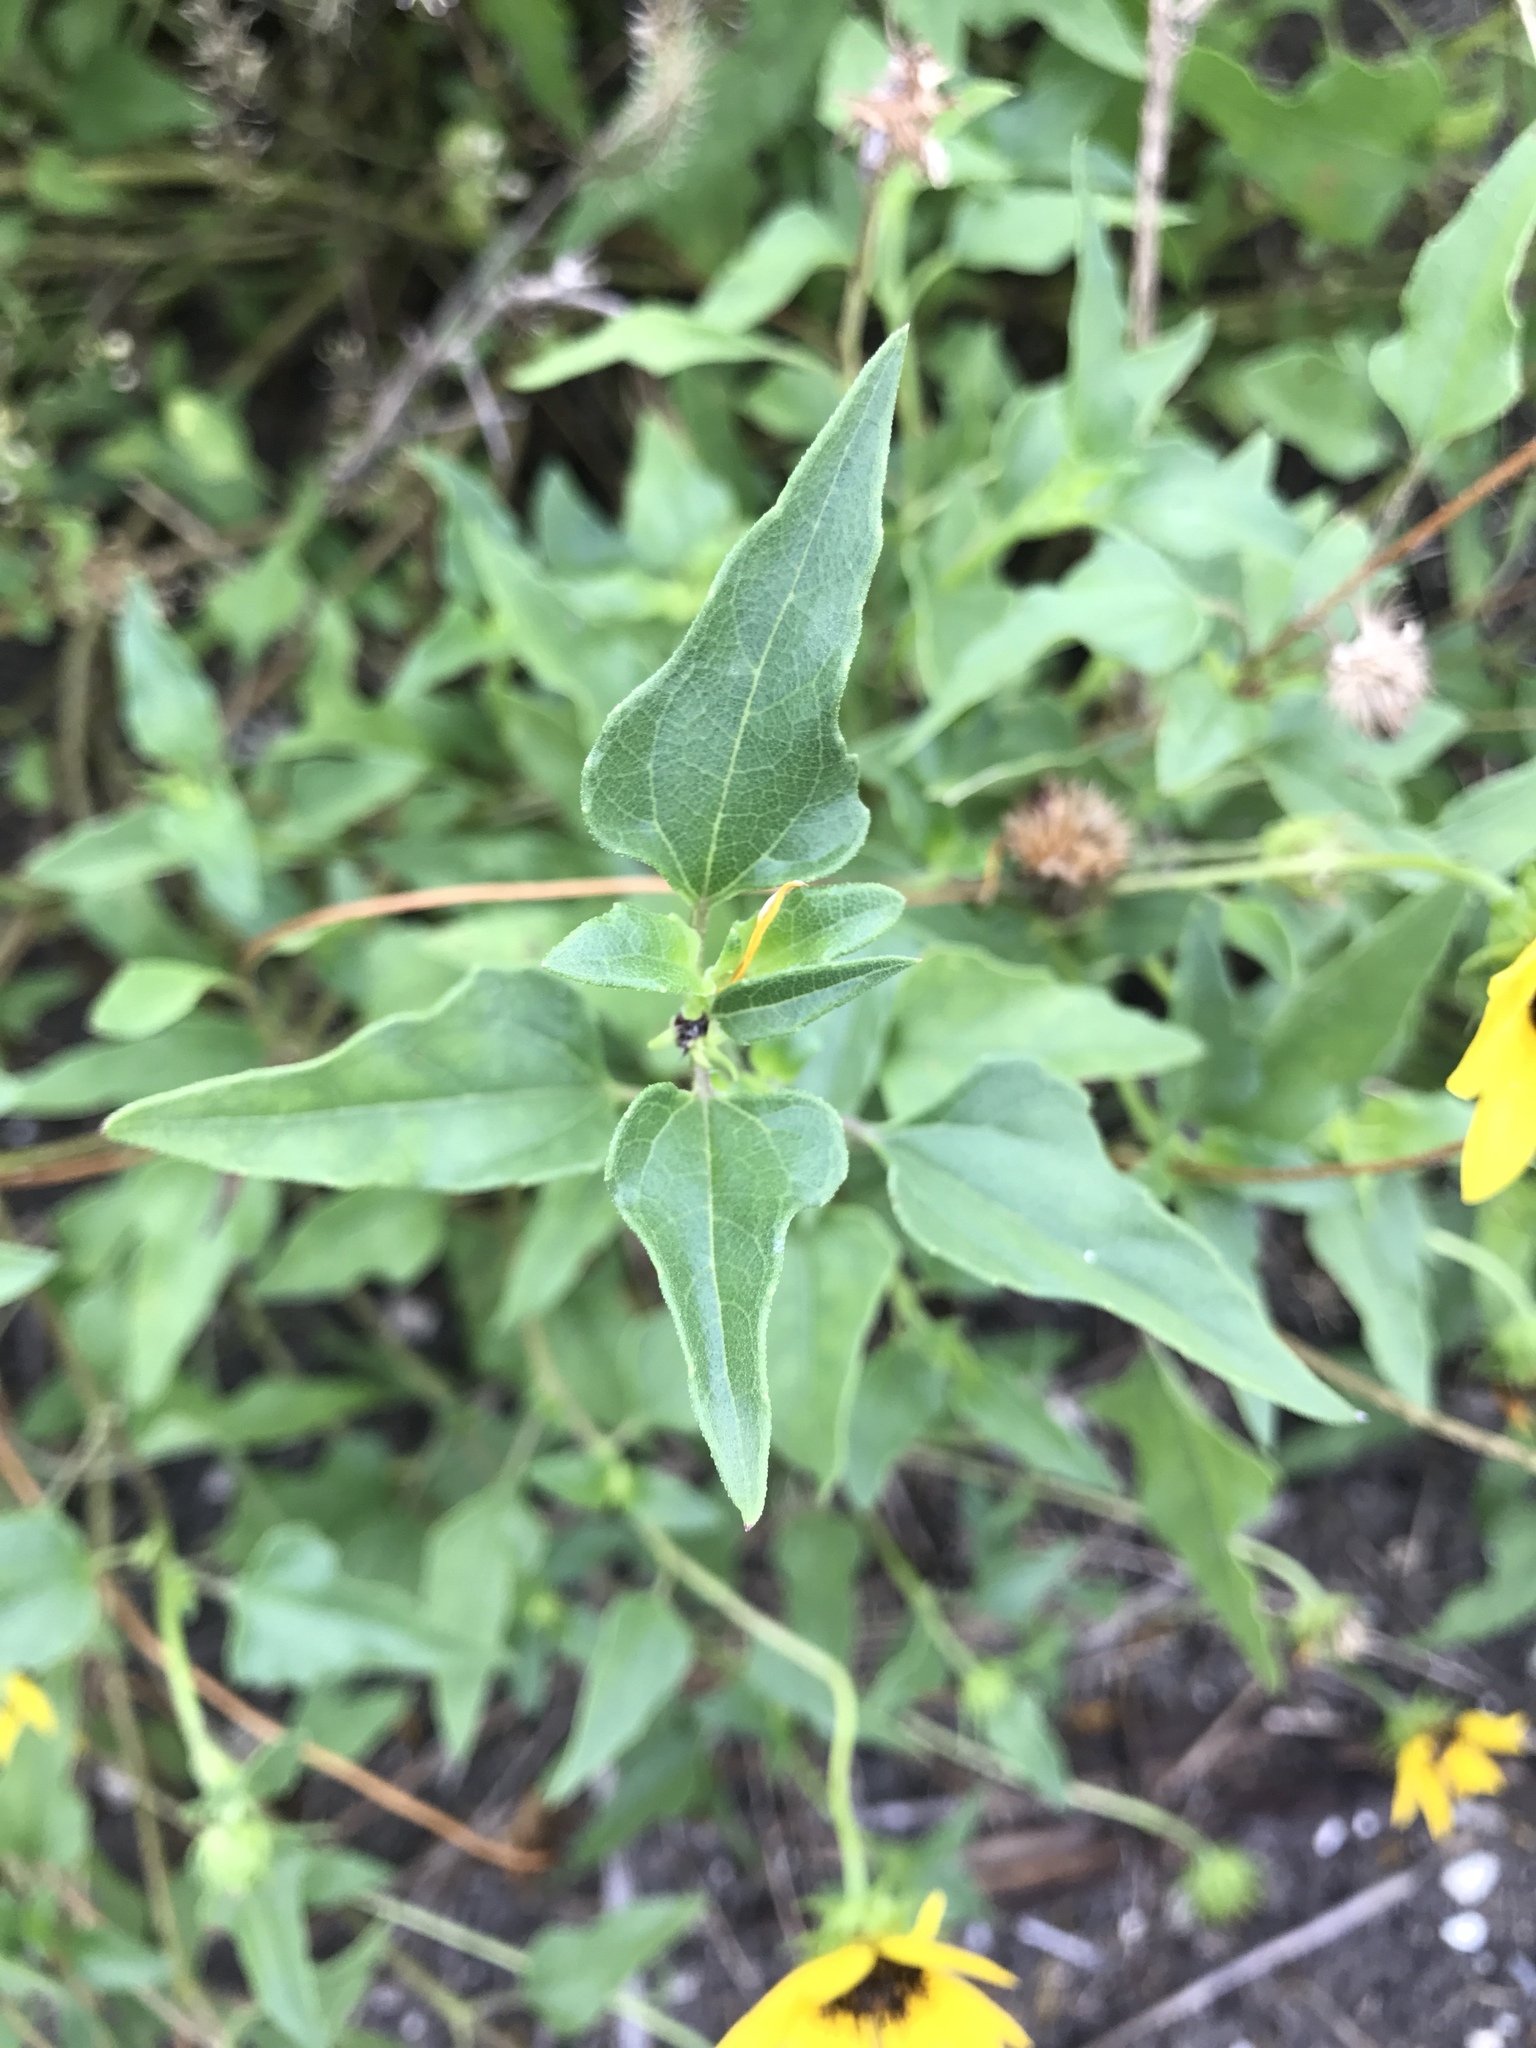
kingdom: Plantae
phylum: Tracheophyta
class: Magnoliopsida
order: Asterales
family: Asteraceae
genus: Helianthus
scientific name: Helianthus debilis
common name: Weak sunflower
